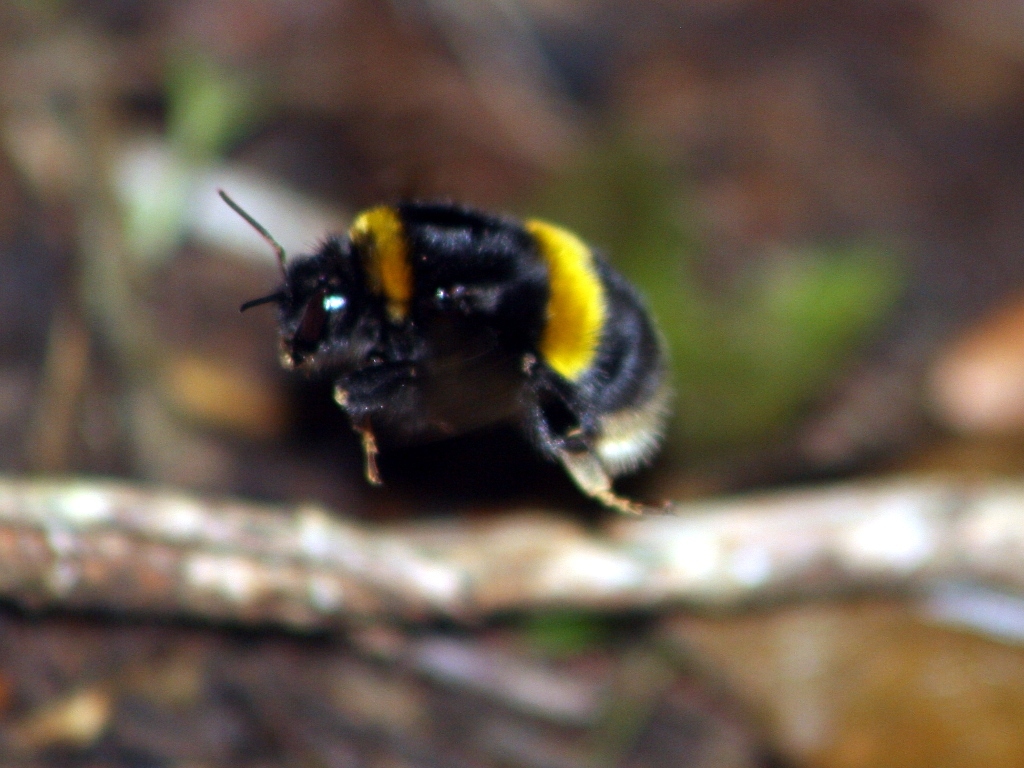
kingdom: Animalia
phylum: Arthropoda
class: Insecta
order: Hymenoptera
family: Apidae
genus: Bombus
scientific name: Bombus terrestris
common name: Buff-tailed bumblebee
